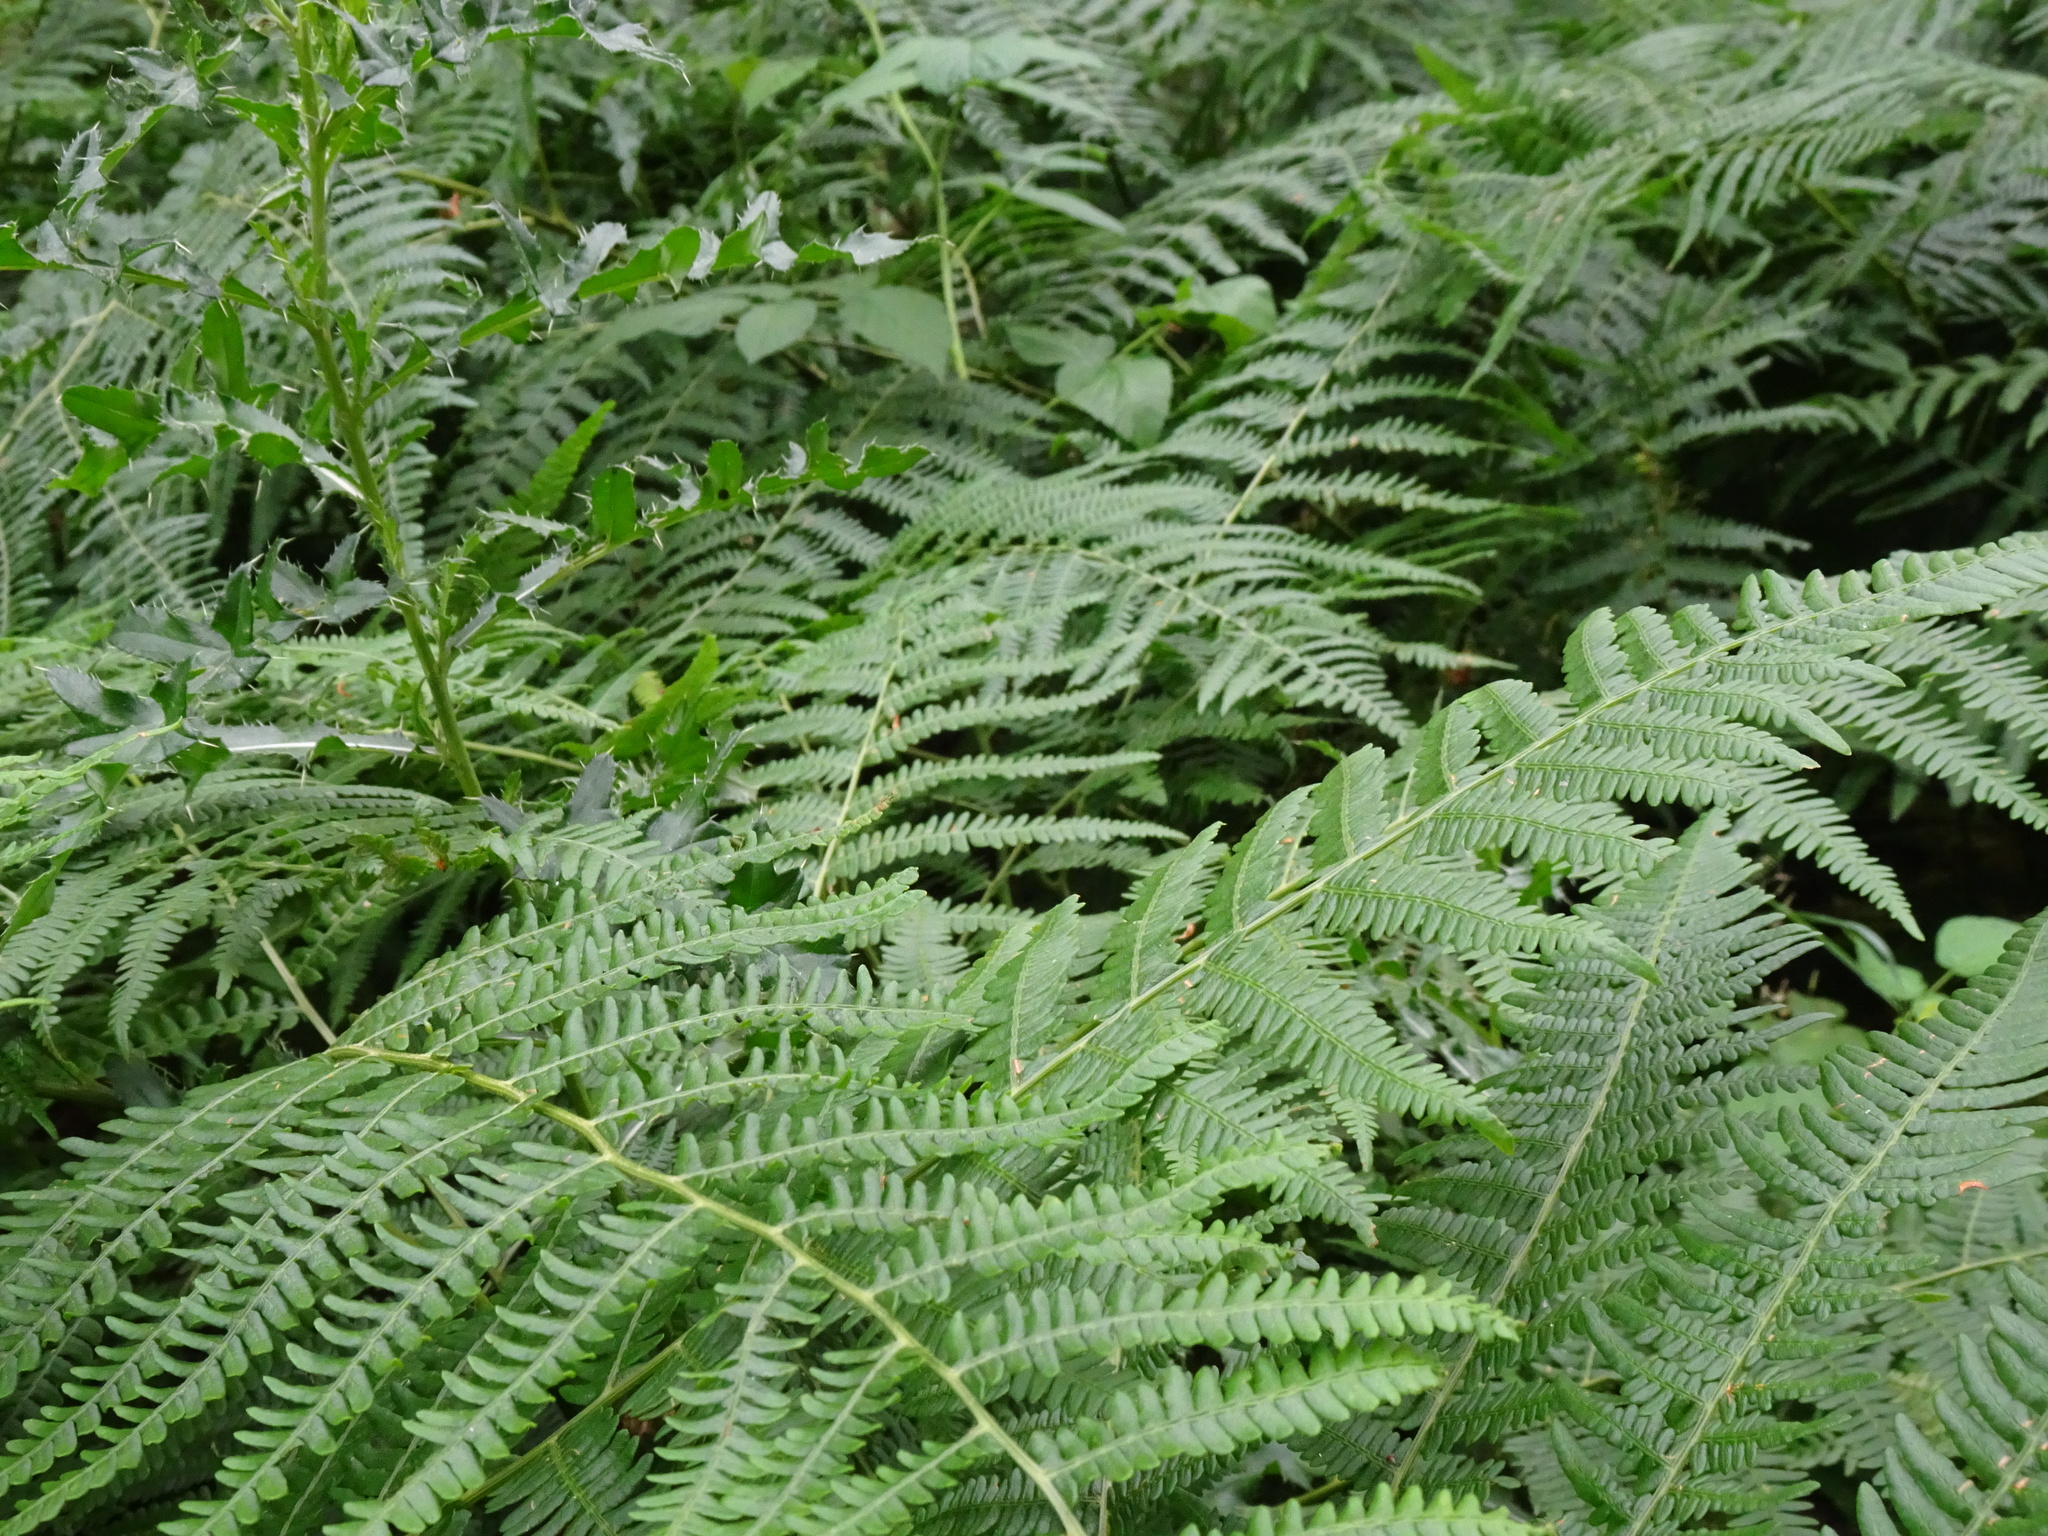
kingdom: Plantae
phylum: Tracheophyta
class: Polypodiopsida
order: Polypodiales
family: Dennstaedtiaceae
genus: Pteridium
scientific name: Pteridium aquilinum
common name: Bracken
